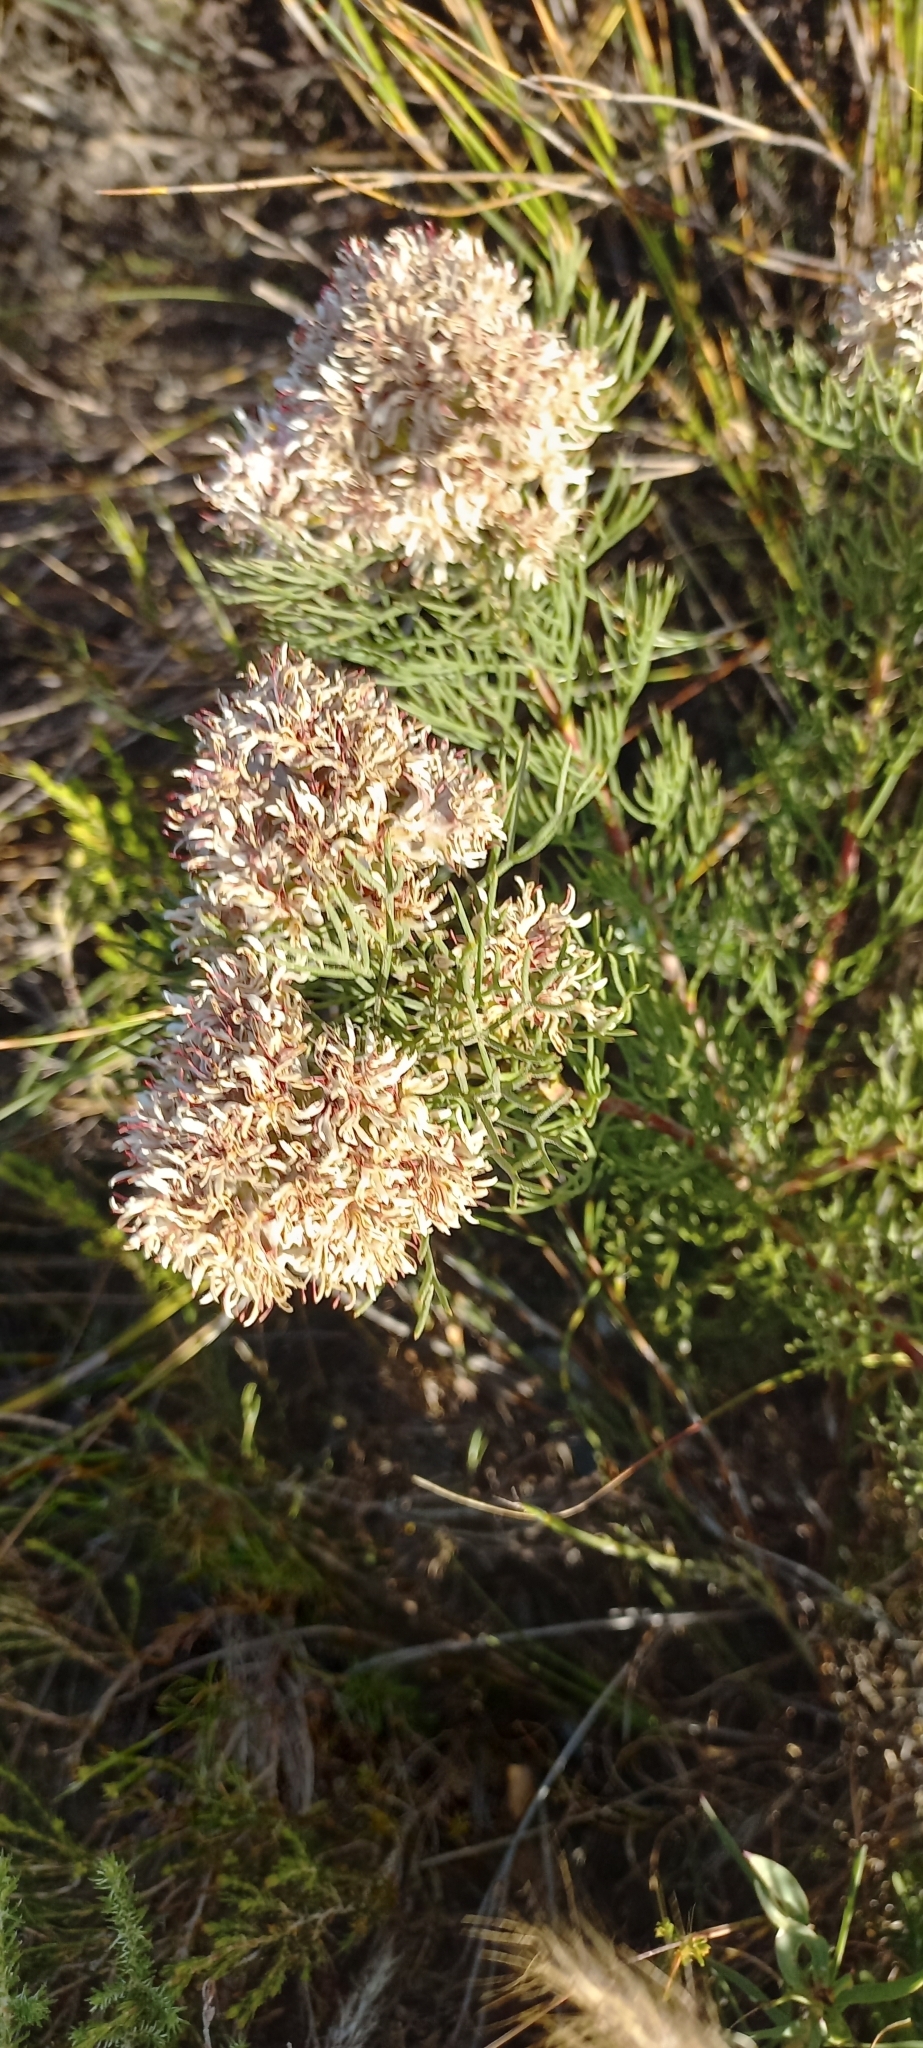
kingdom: Plantae
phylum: Tracheophyta
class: Magnoliopsida
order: Proteales
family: Proteaceae
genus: Serruria
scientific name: Serruria ascendens
